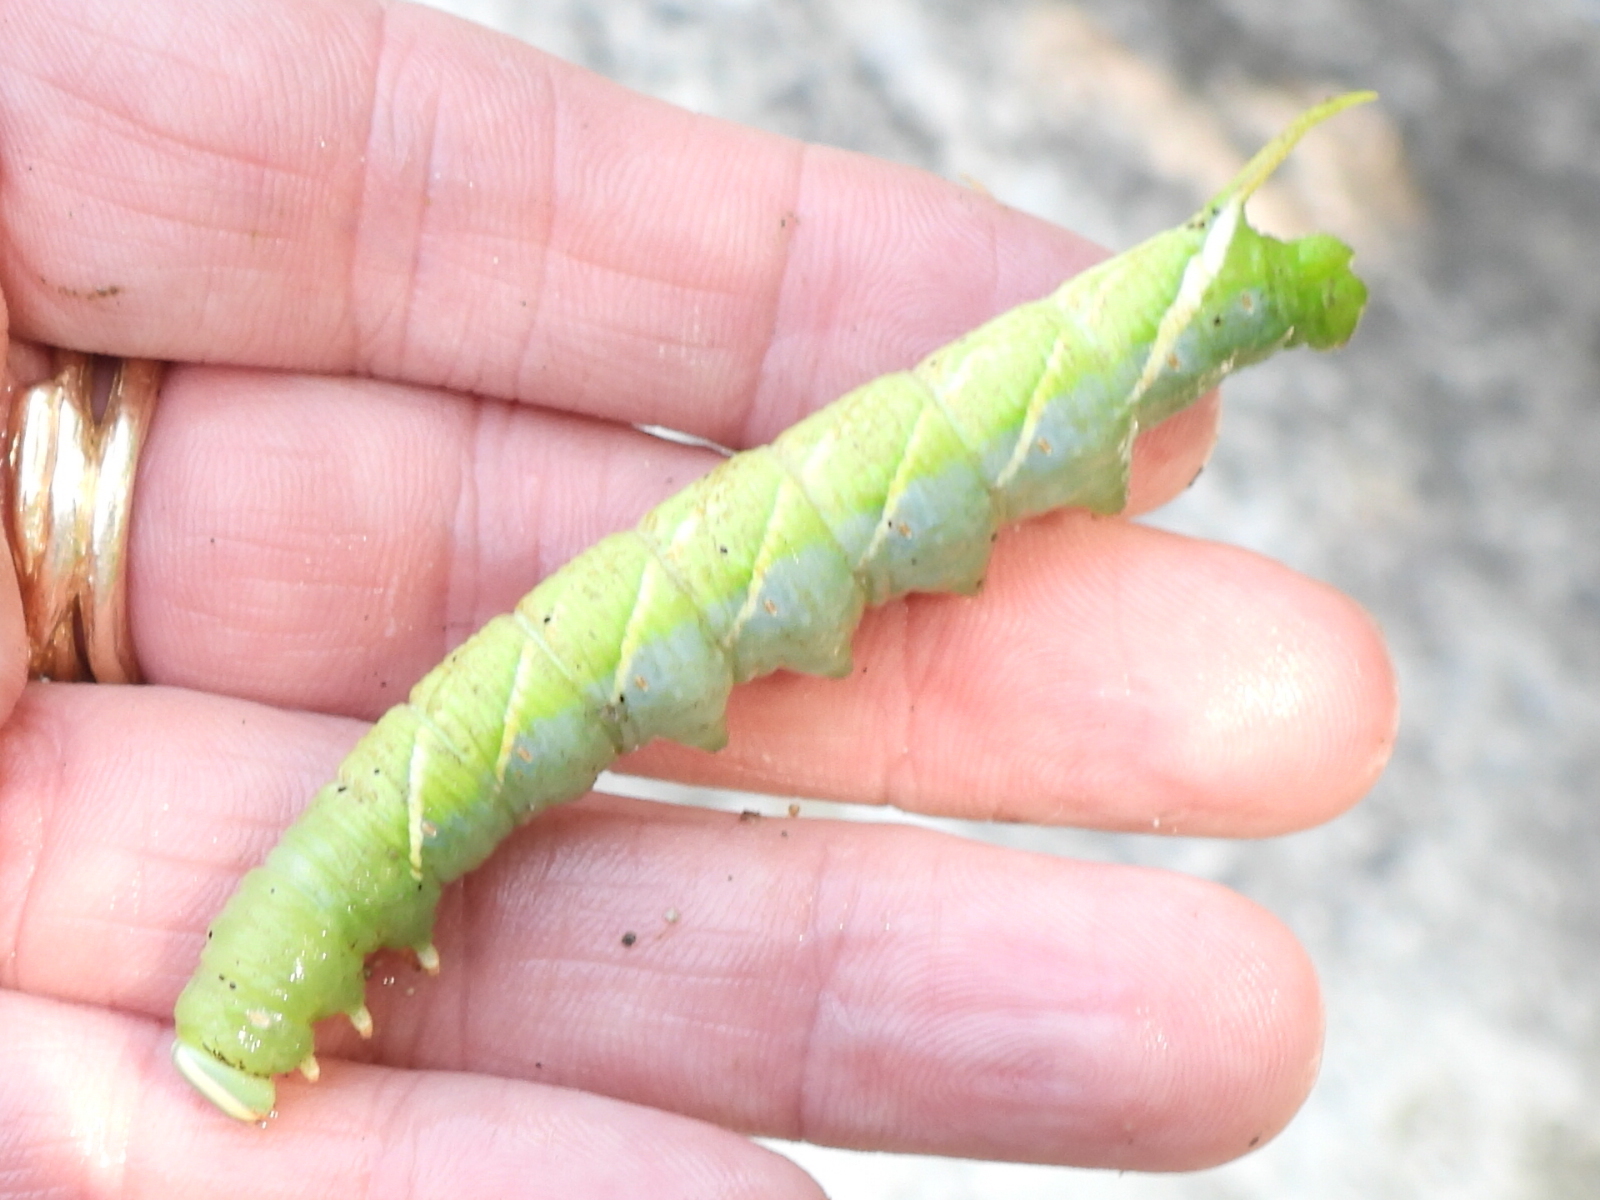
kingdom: Animalia
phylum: Arthropoda
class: Insecta
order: Lepidoptera
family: Sphingidae
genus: Ceratomia
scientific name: Ceratomia undulosa
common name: Waved sphinx
